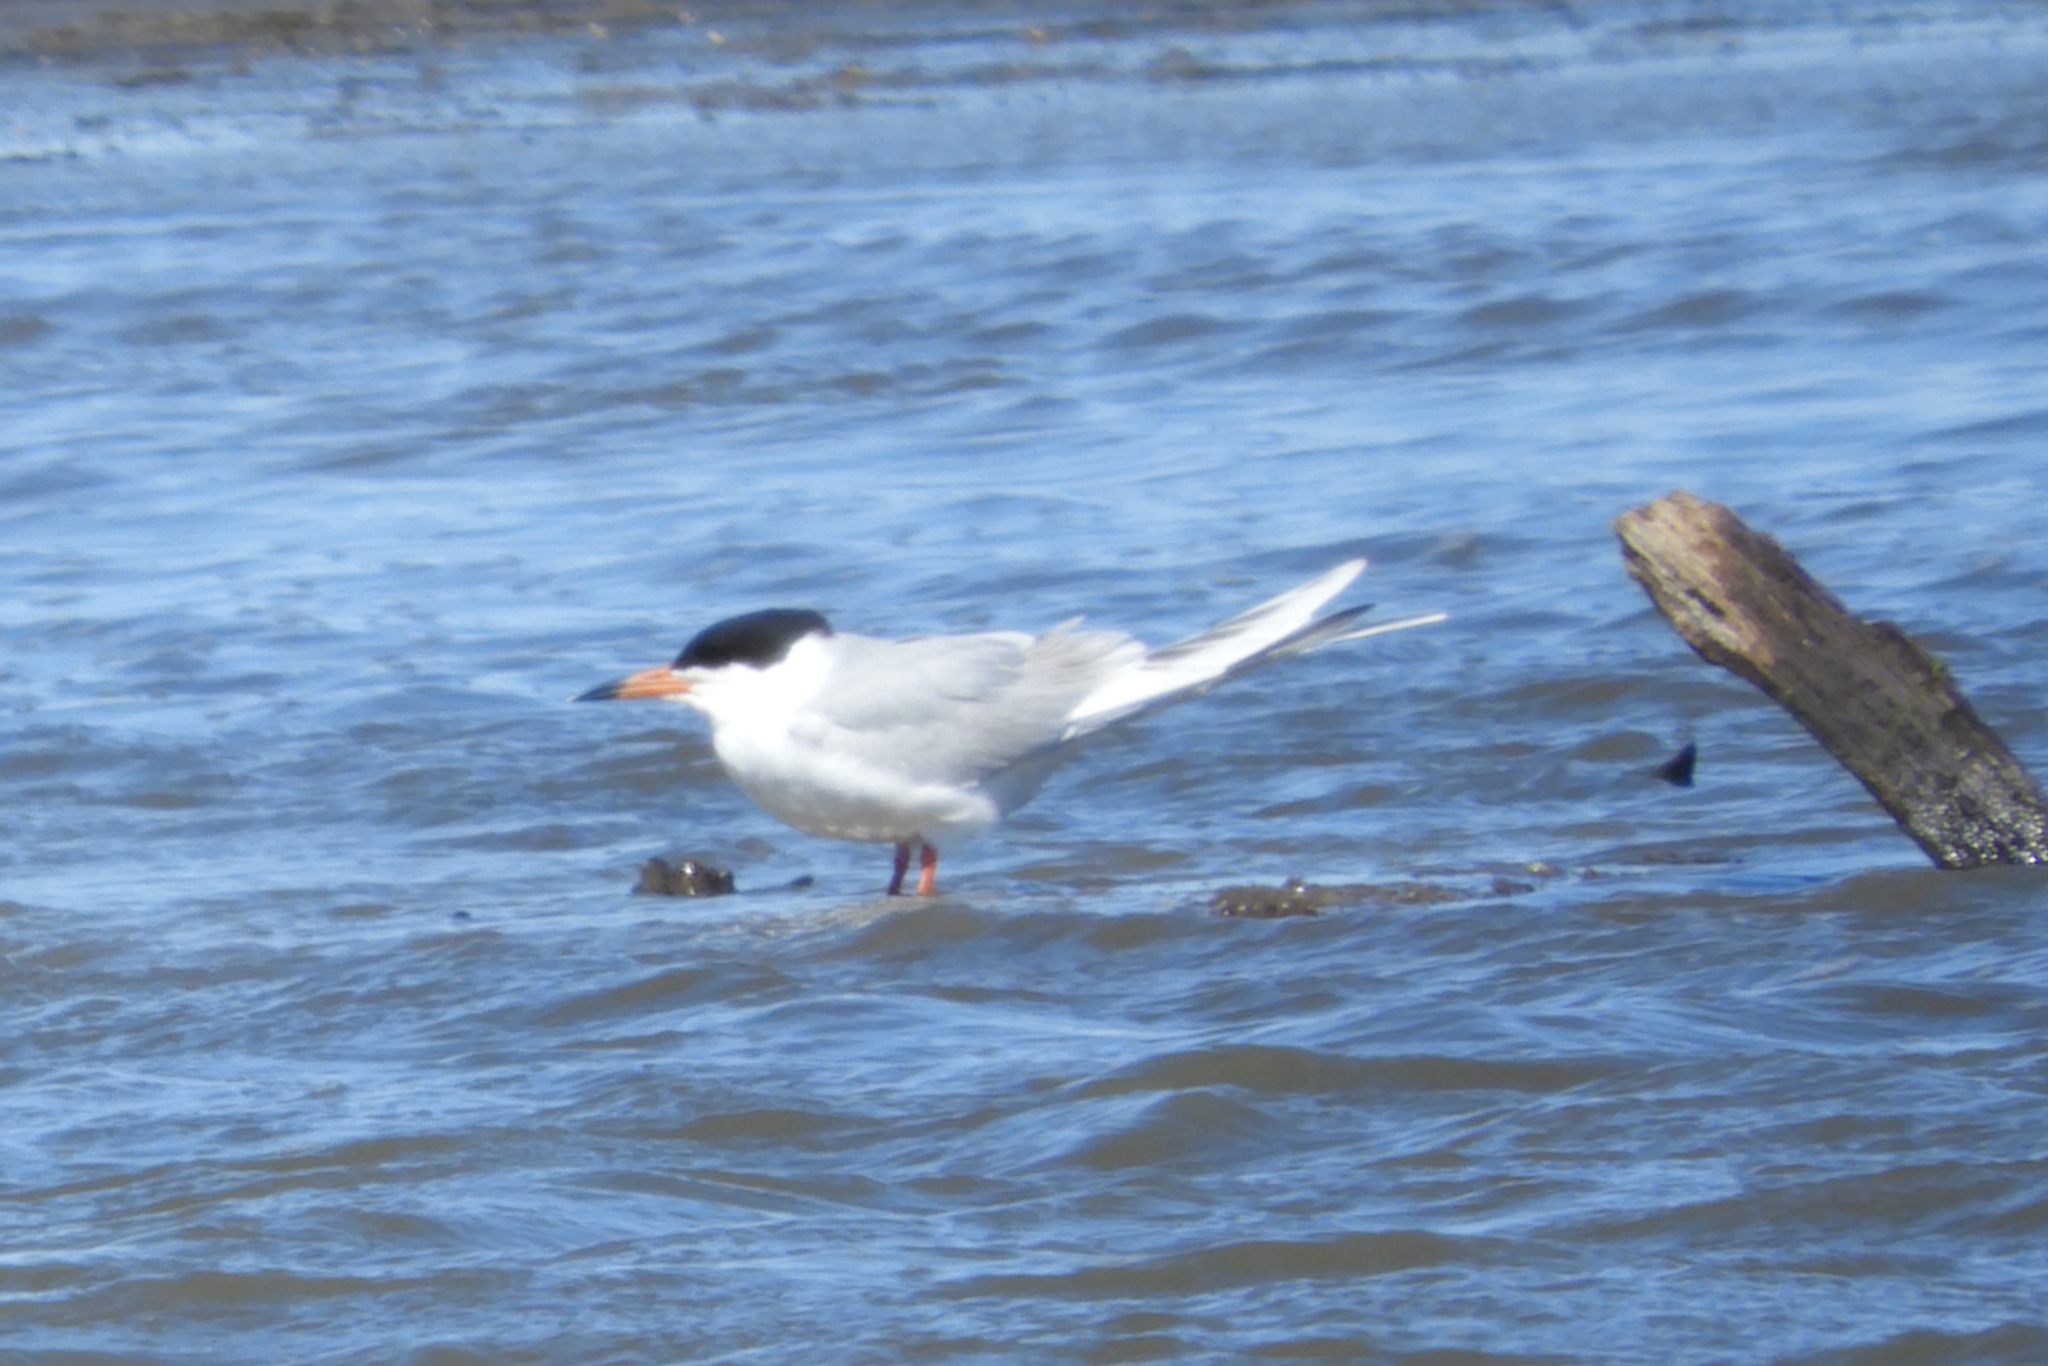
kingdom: Animalia
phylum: Chordata
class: Aves
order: Charadriiformes
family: Laridae
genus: Sterna
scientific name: Sterna forsteri
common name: Forster's tern
